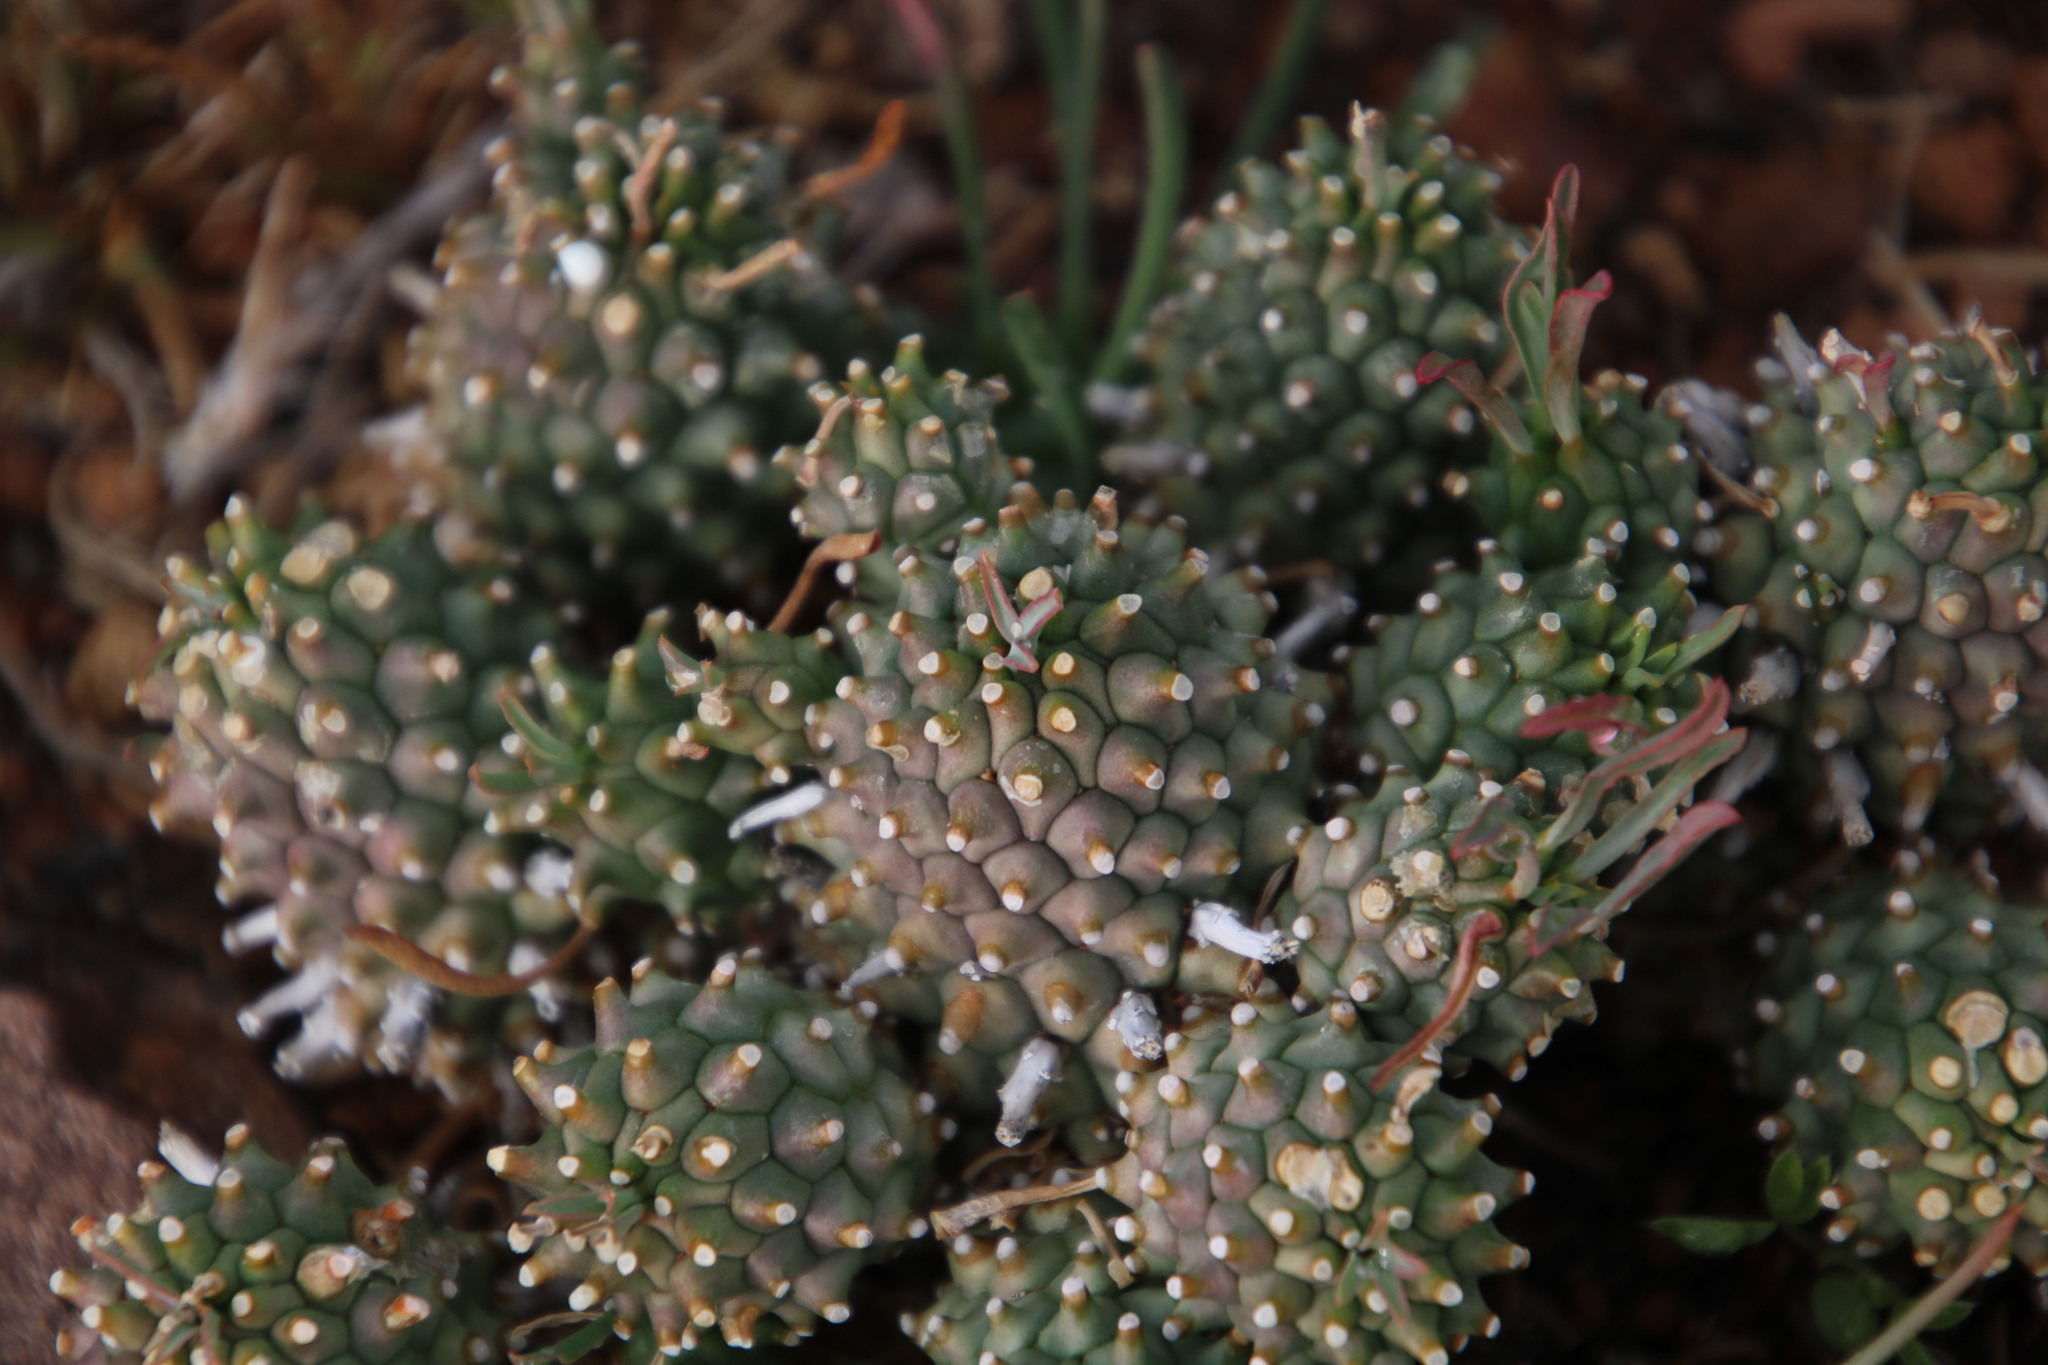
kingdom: Plantae
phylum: Tracheophyta
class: Magnoliopsida
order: Malpighiales
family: Euphorbiaceae
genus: Euphorbia
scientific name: Euphorbia braunsii
